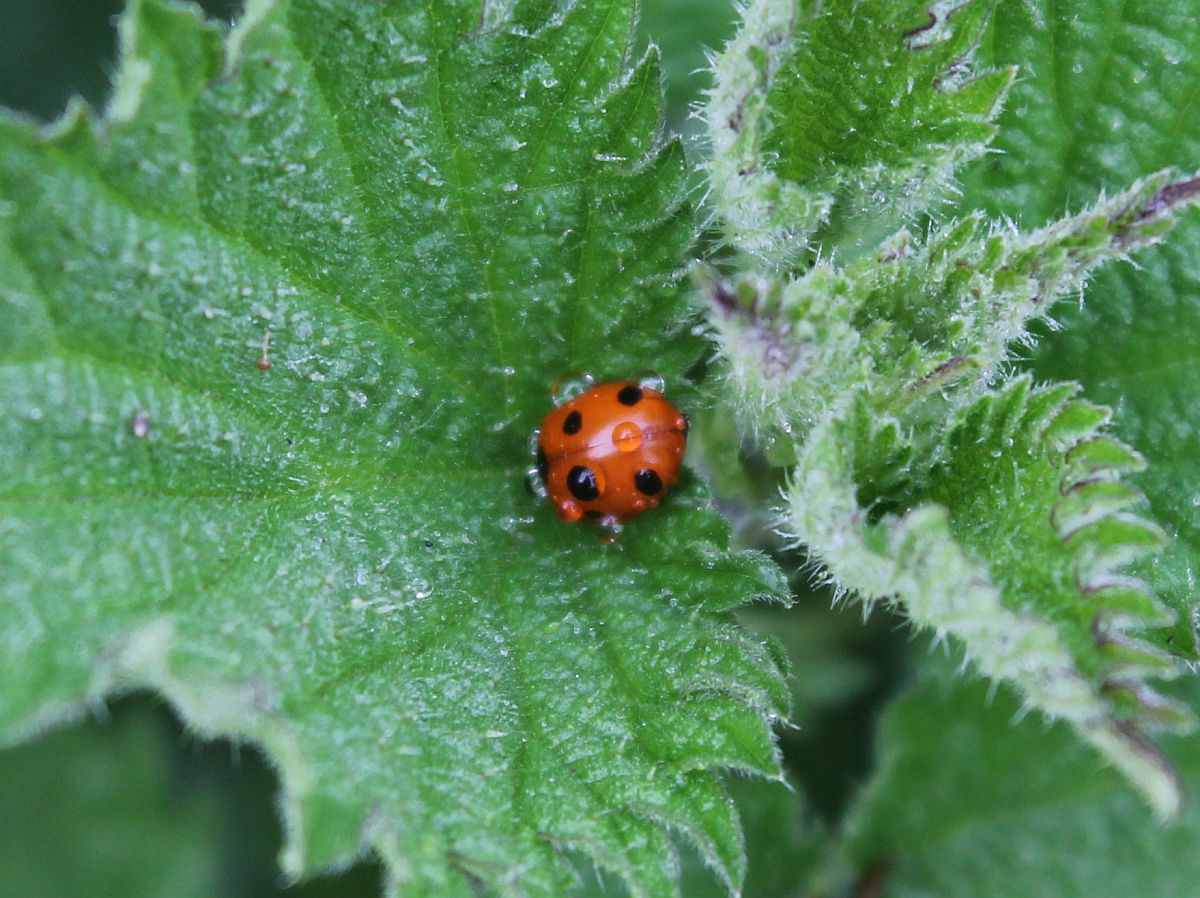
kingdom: Animalia
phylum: Arthropoda
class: Insecta
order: Coleoptera
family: Coccinellidae
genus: Coccinella
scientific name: Coccinella septempunctata
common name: Sevenspotted lady beetle
